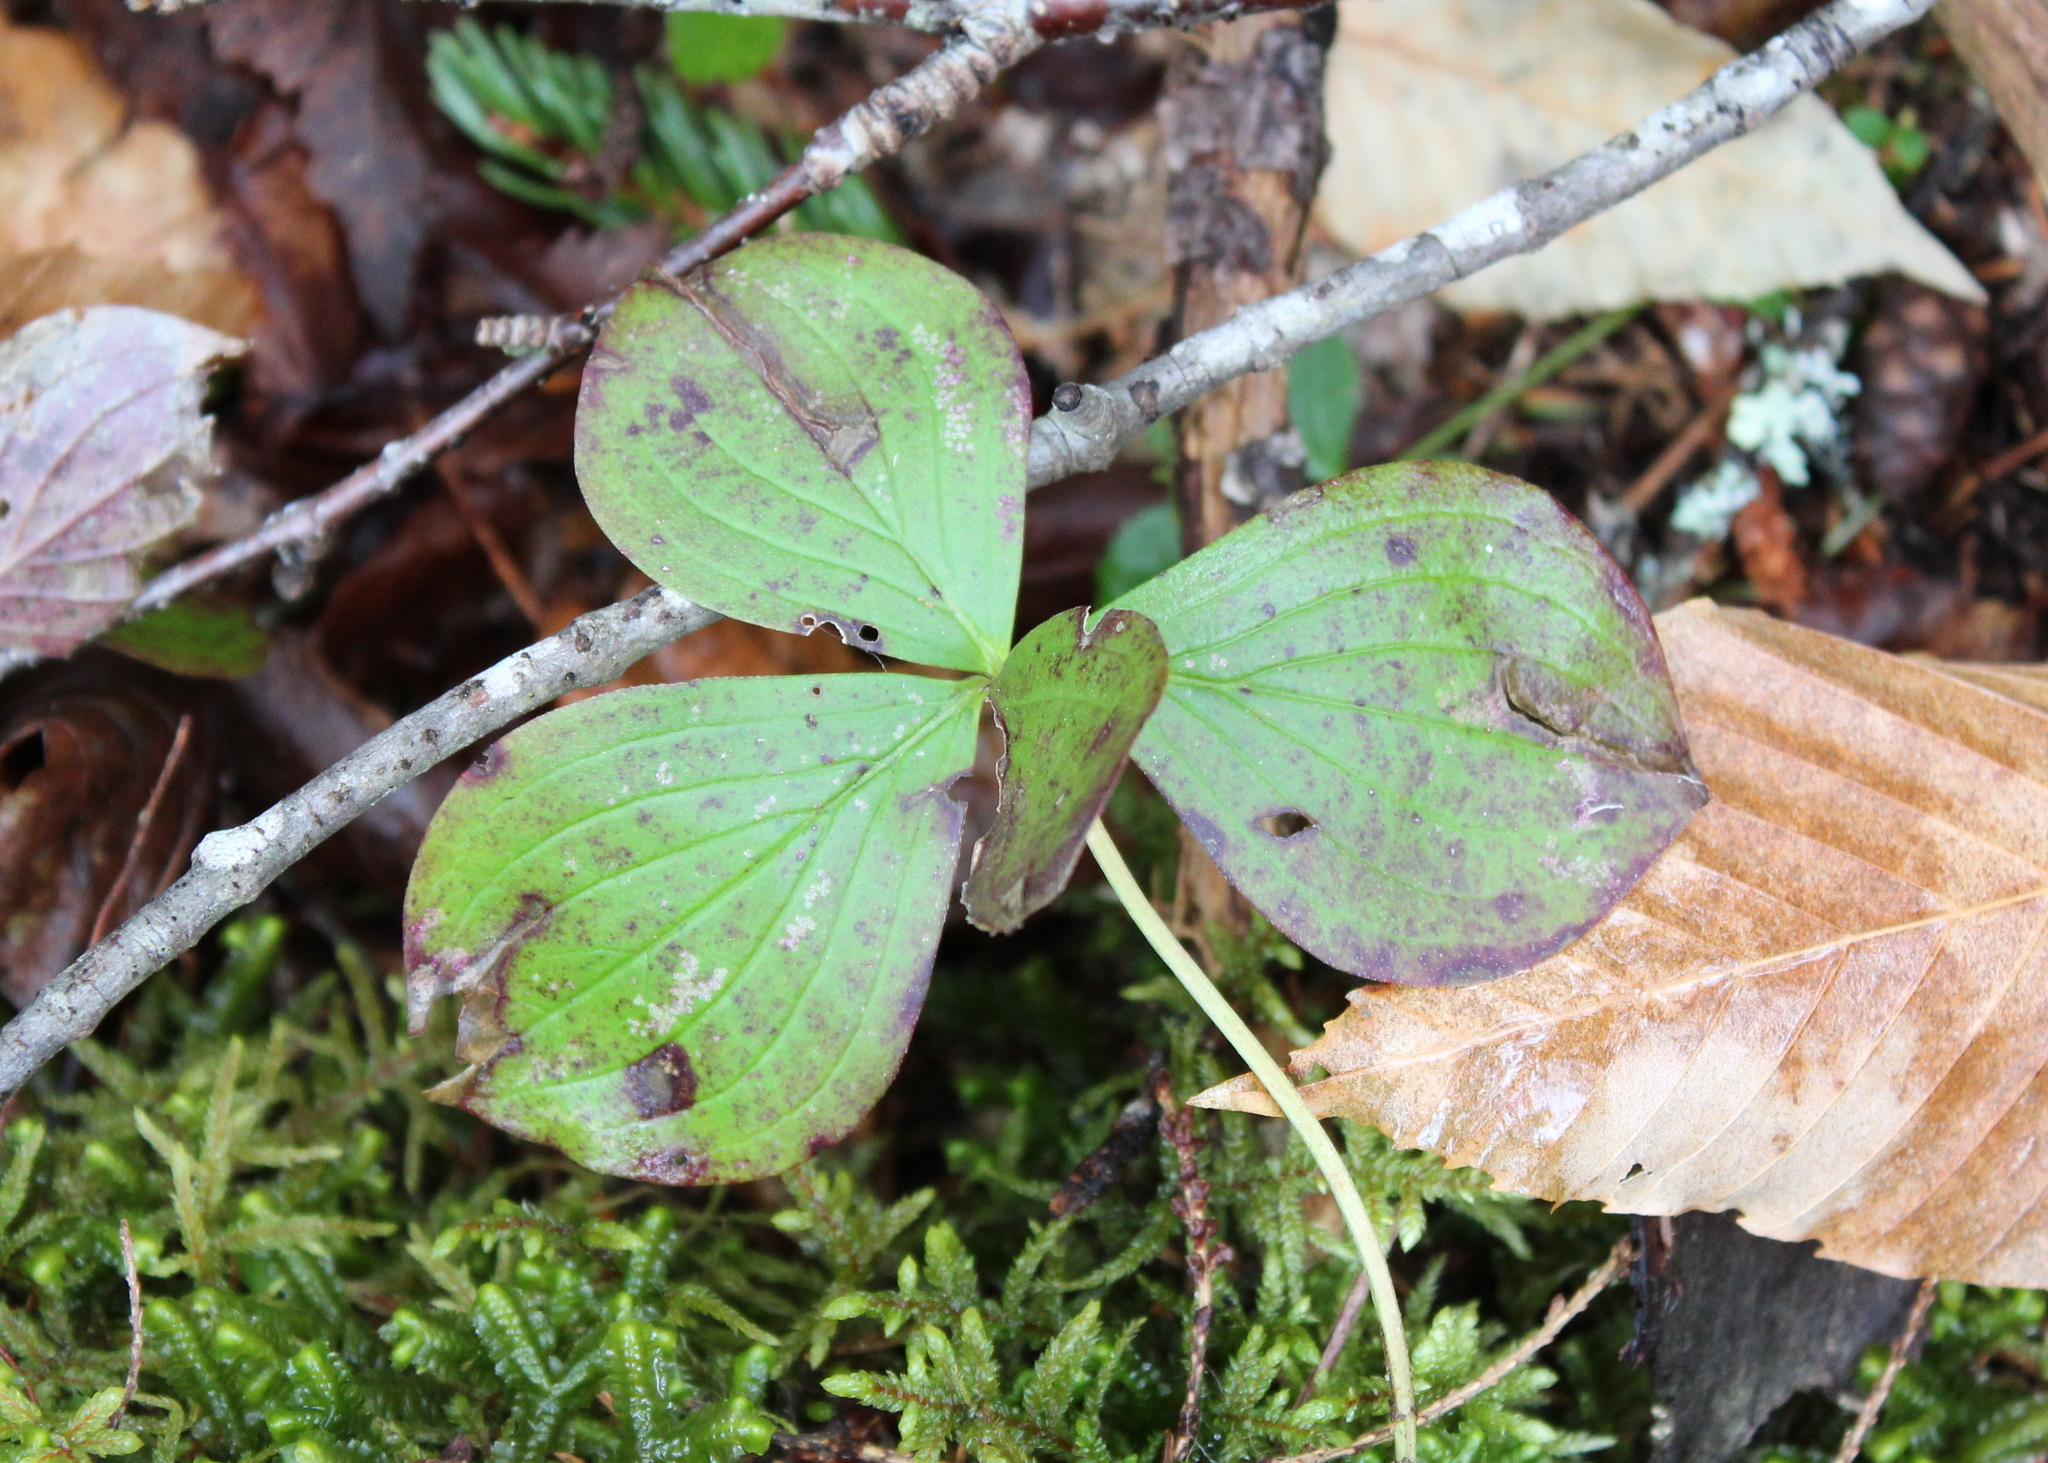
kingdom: Plantae
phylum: Tracheophyta
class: Magnoliopsida
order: Cornales
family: Cornaceae
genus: Cornus
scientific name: Cornus canadensis
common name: Creeping dogwood
